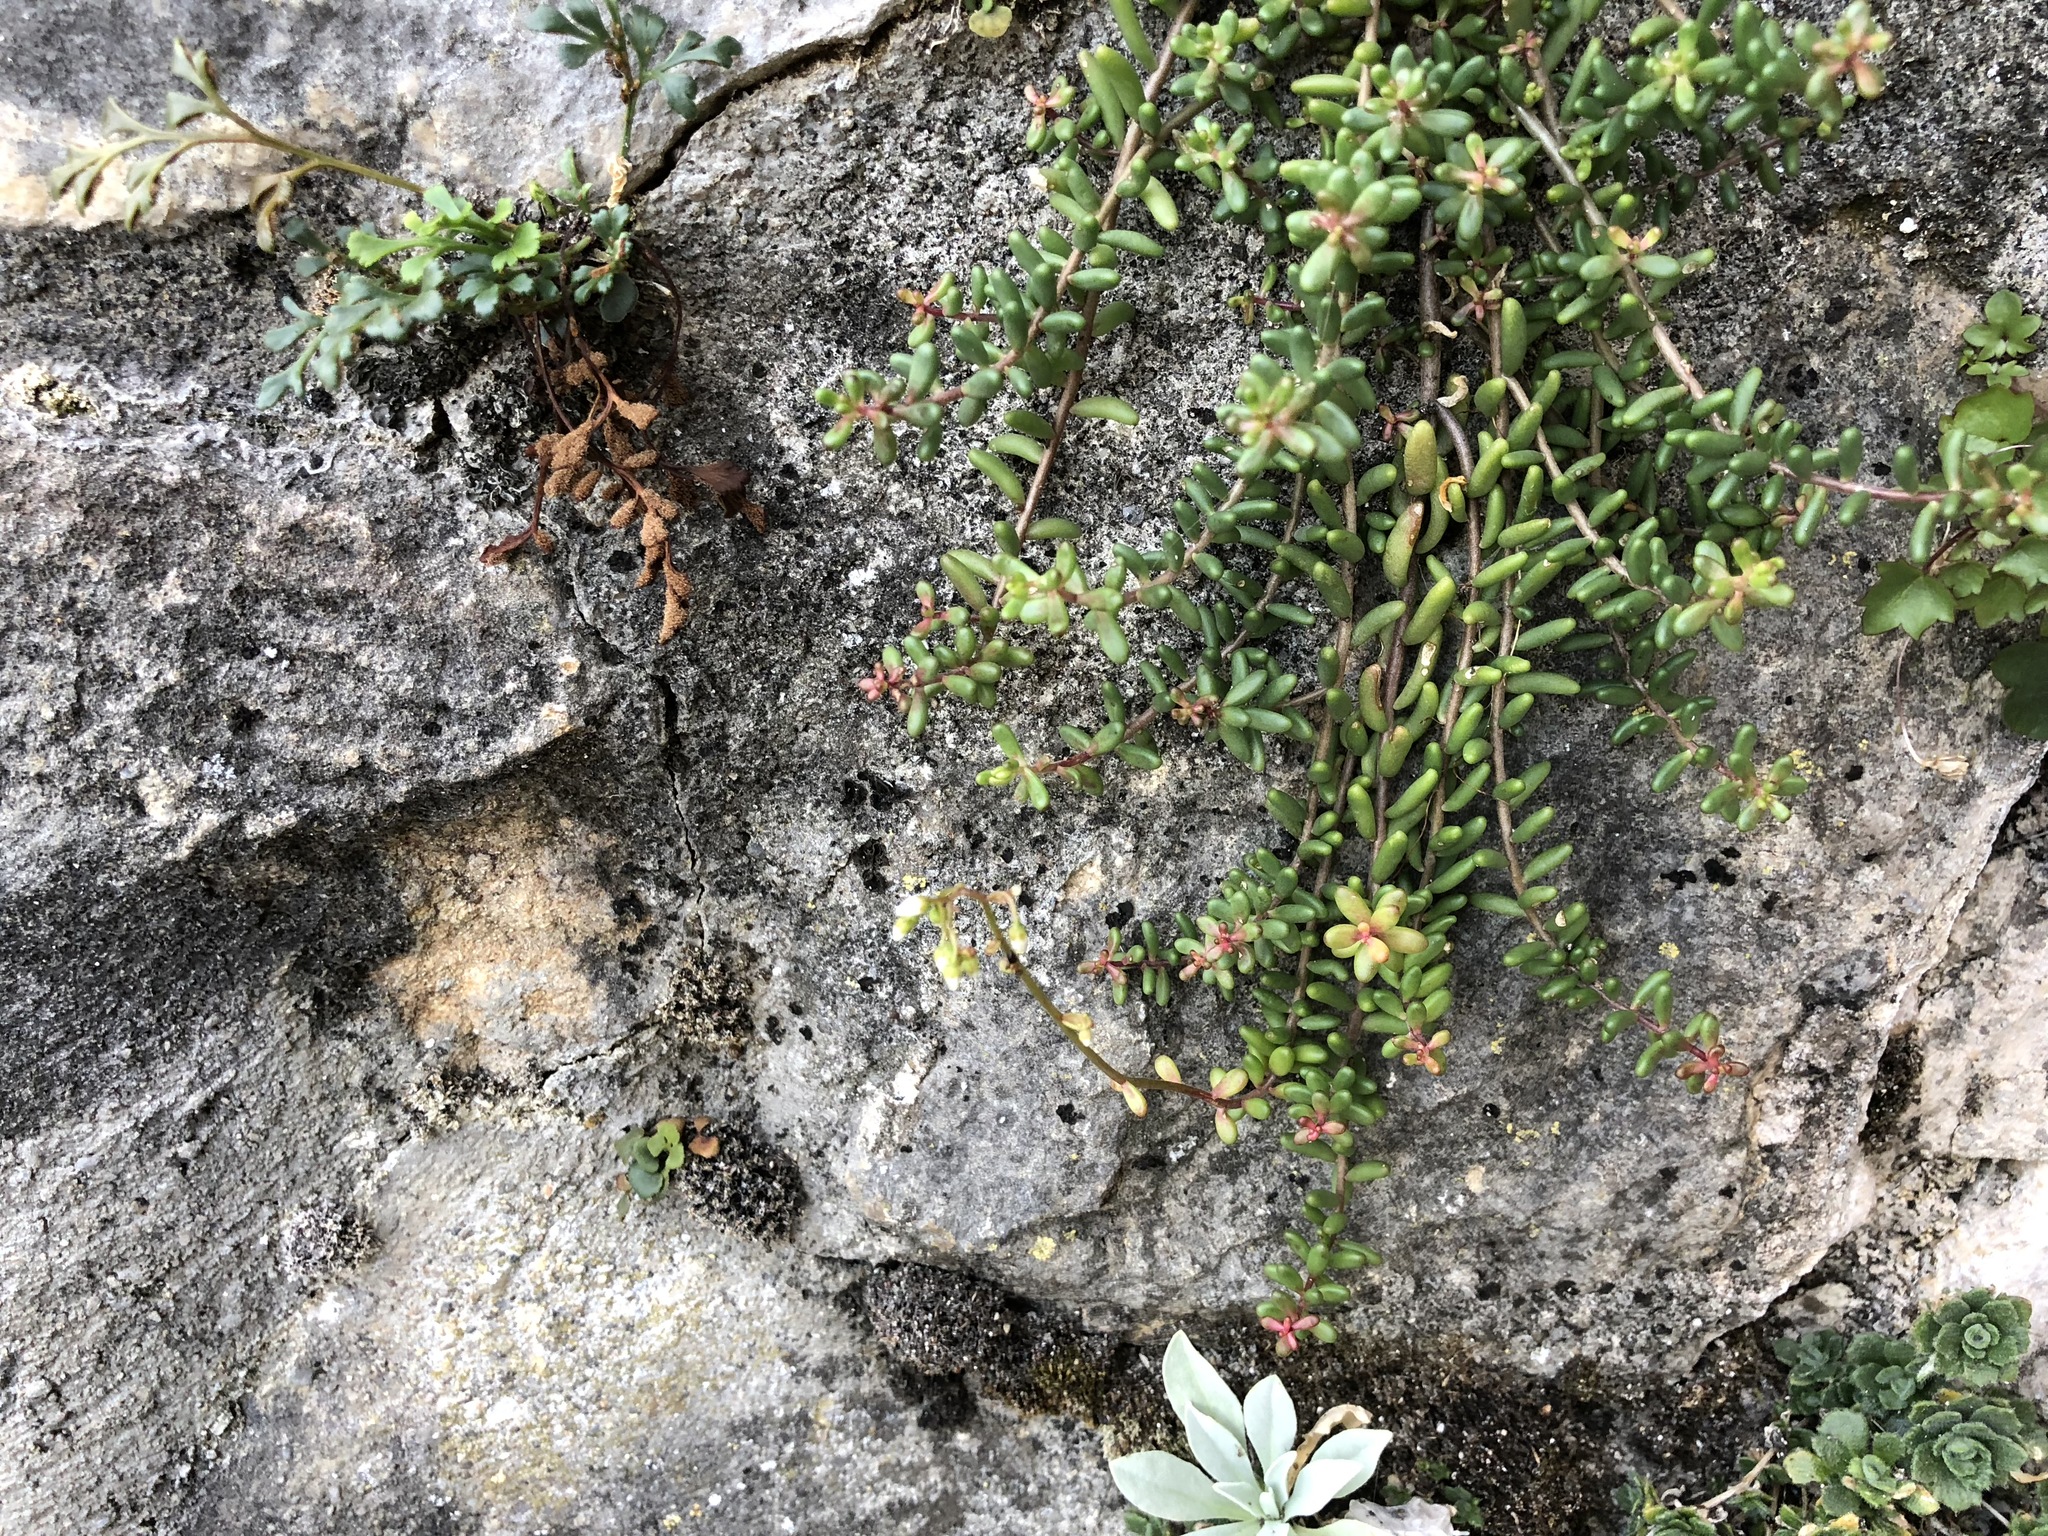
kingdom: Plantae
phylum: Tracheophyta
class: Magnoliopsida
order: Saxifragales
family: Crassulaceae
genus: Sedum
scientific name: Sedum album
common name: White stonecrop
